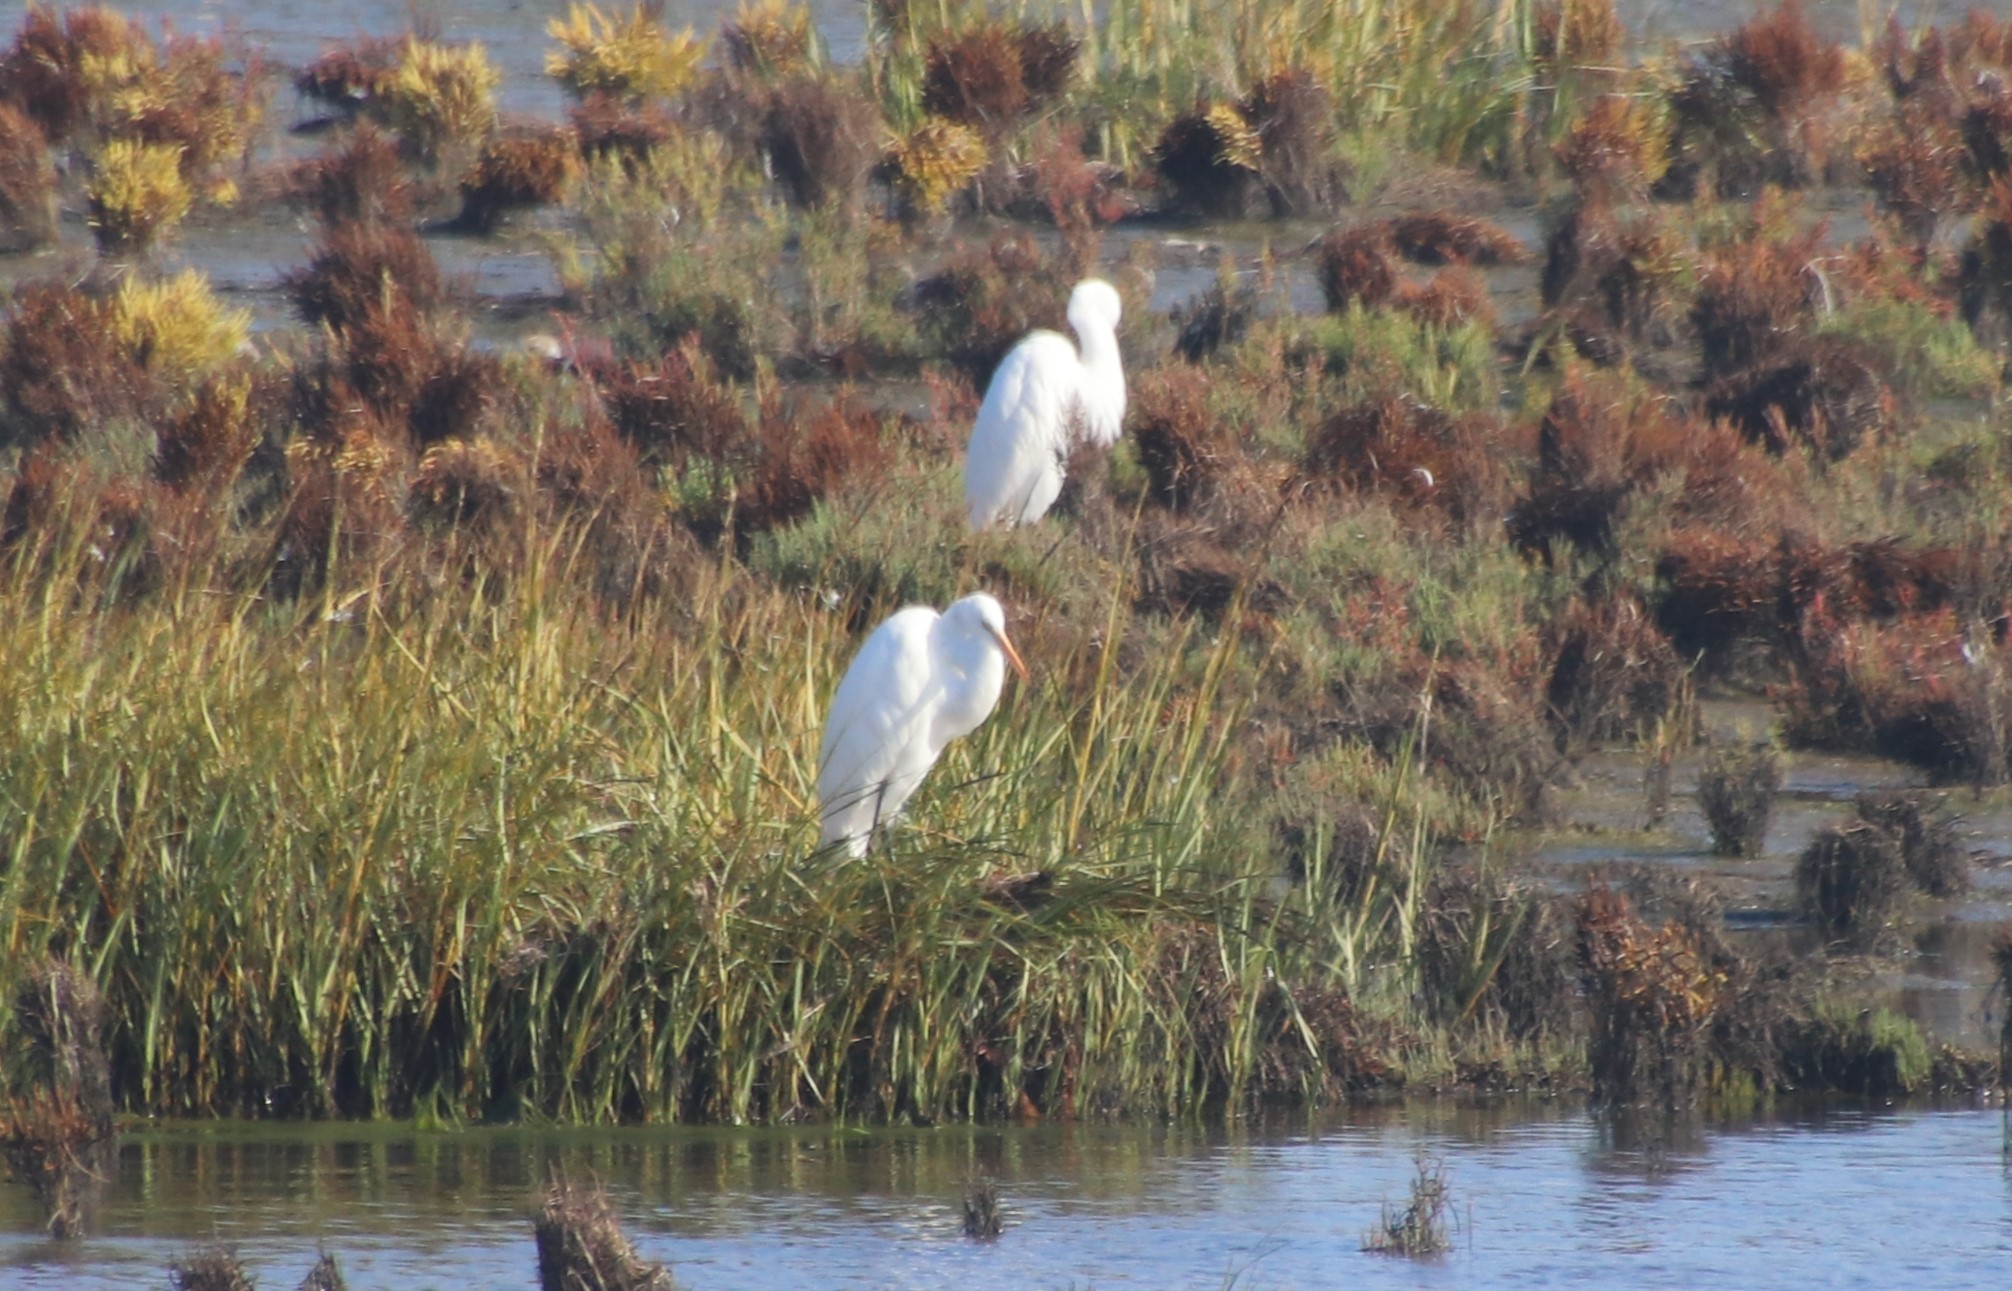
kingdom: Animalia
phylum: Chordata
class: Aves
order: Pelecaniformes
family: Ardeidae
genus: Ardea
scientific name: Ardea alba
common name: Great egret
